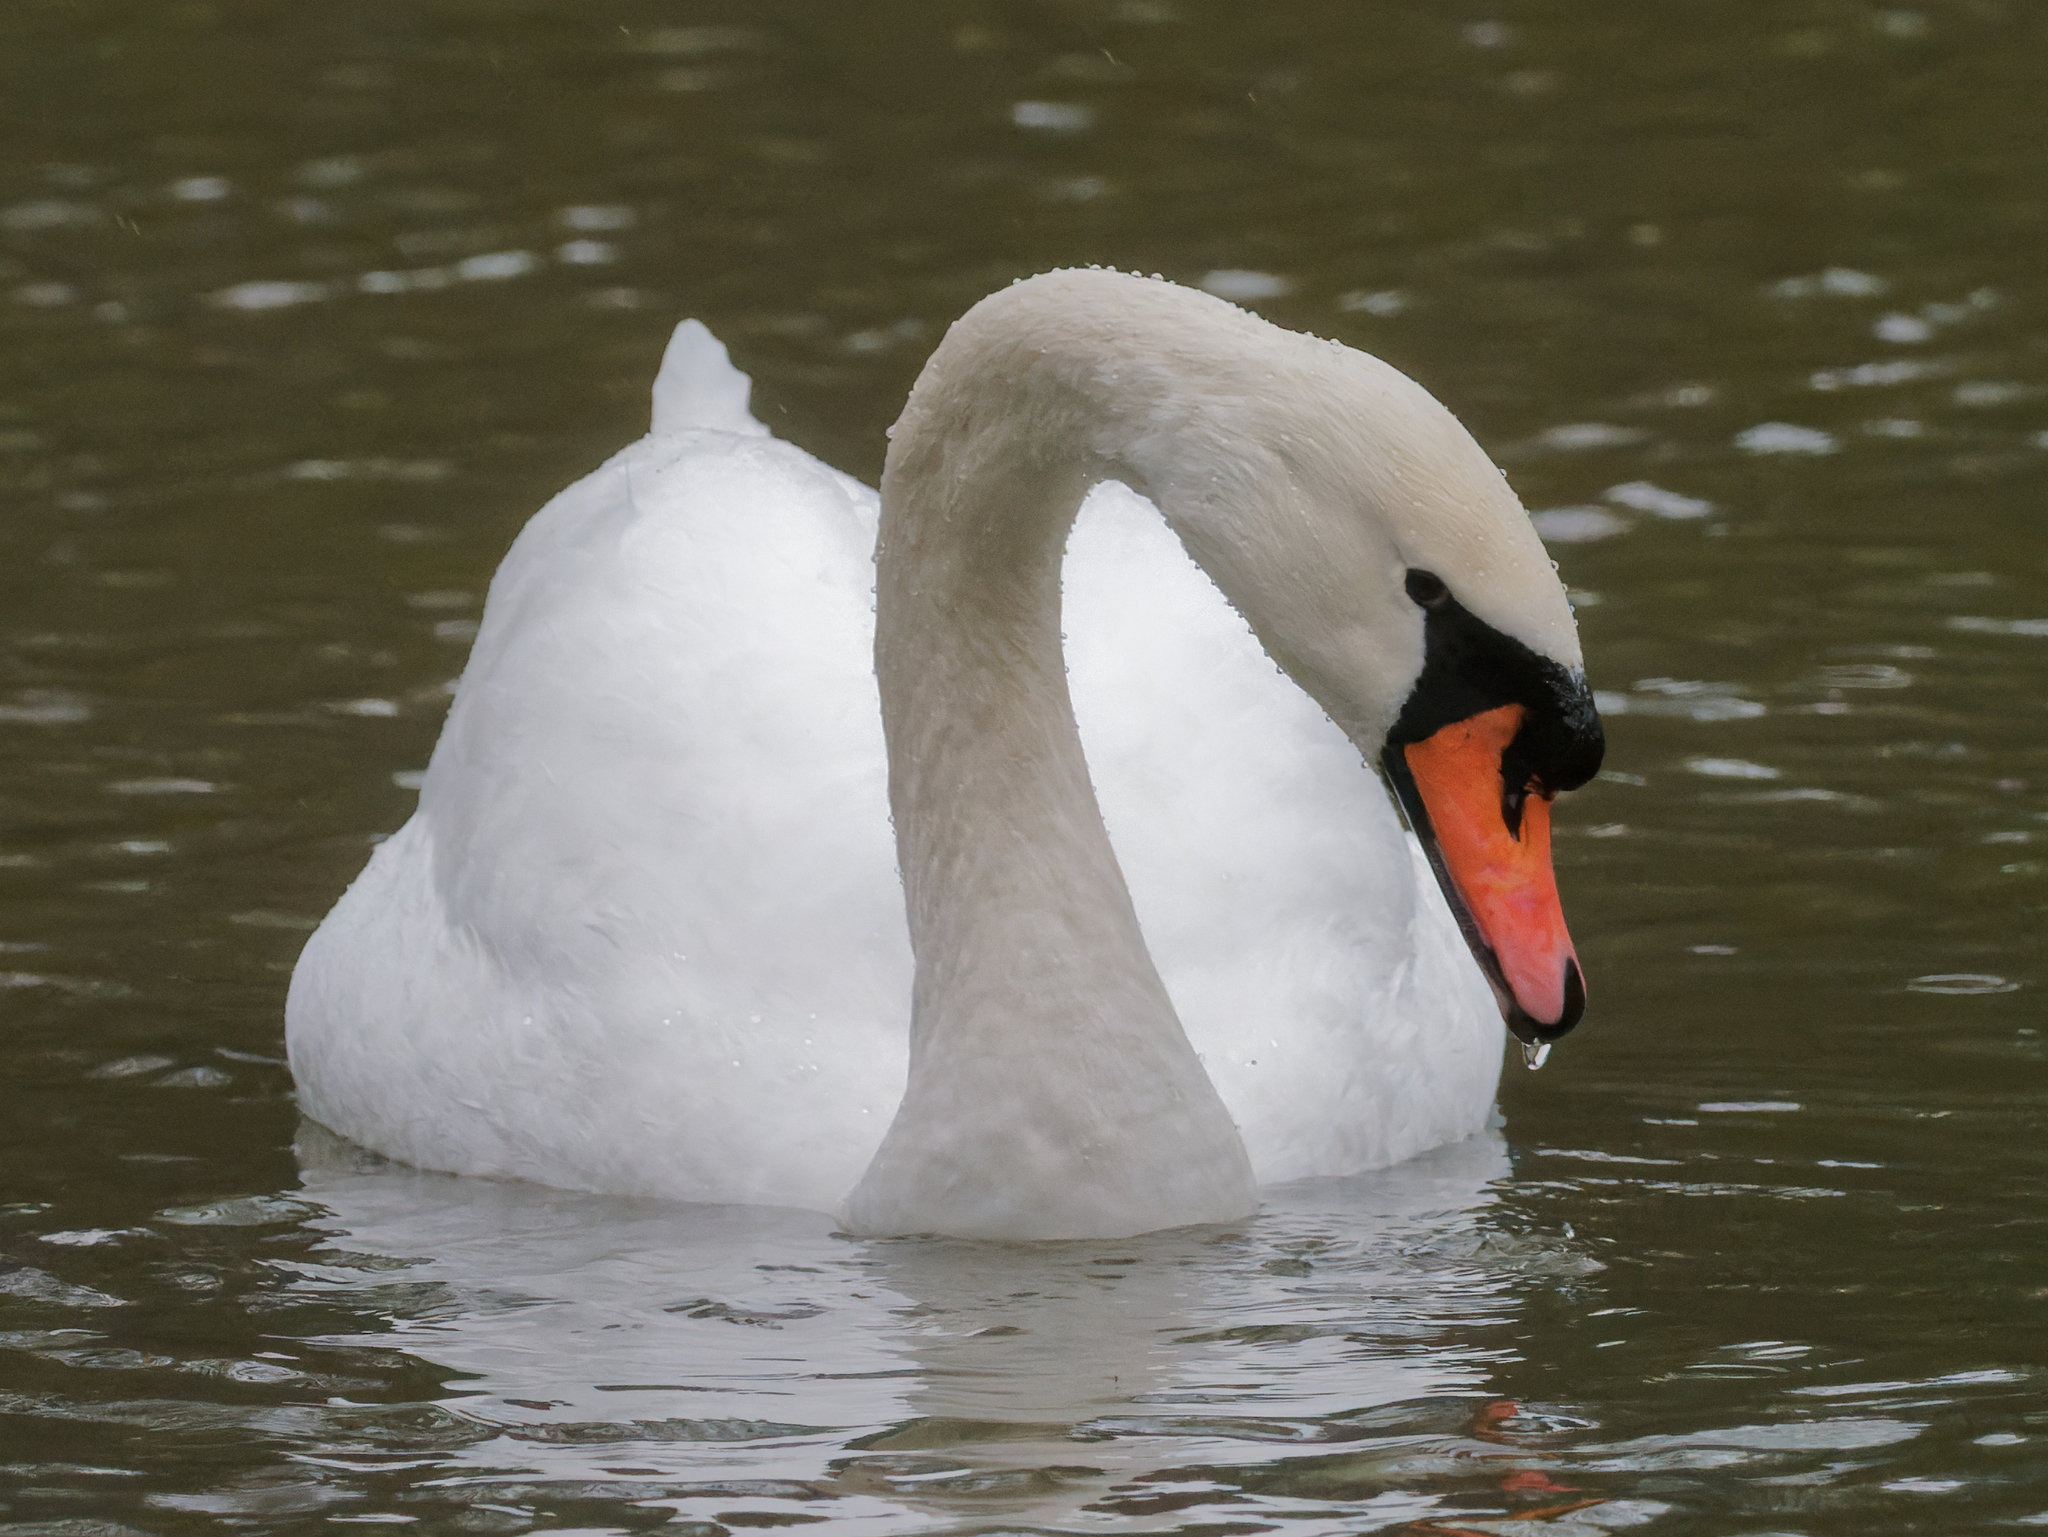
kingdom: Animalia
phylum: Chordata
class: Aves
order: Anseriformes
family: Anatidae
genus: Cygnus
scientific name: Cygnus olor
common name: Mute swan
